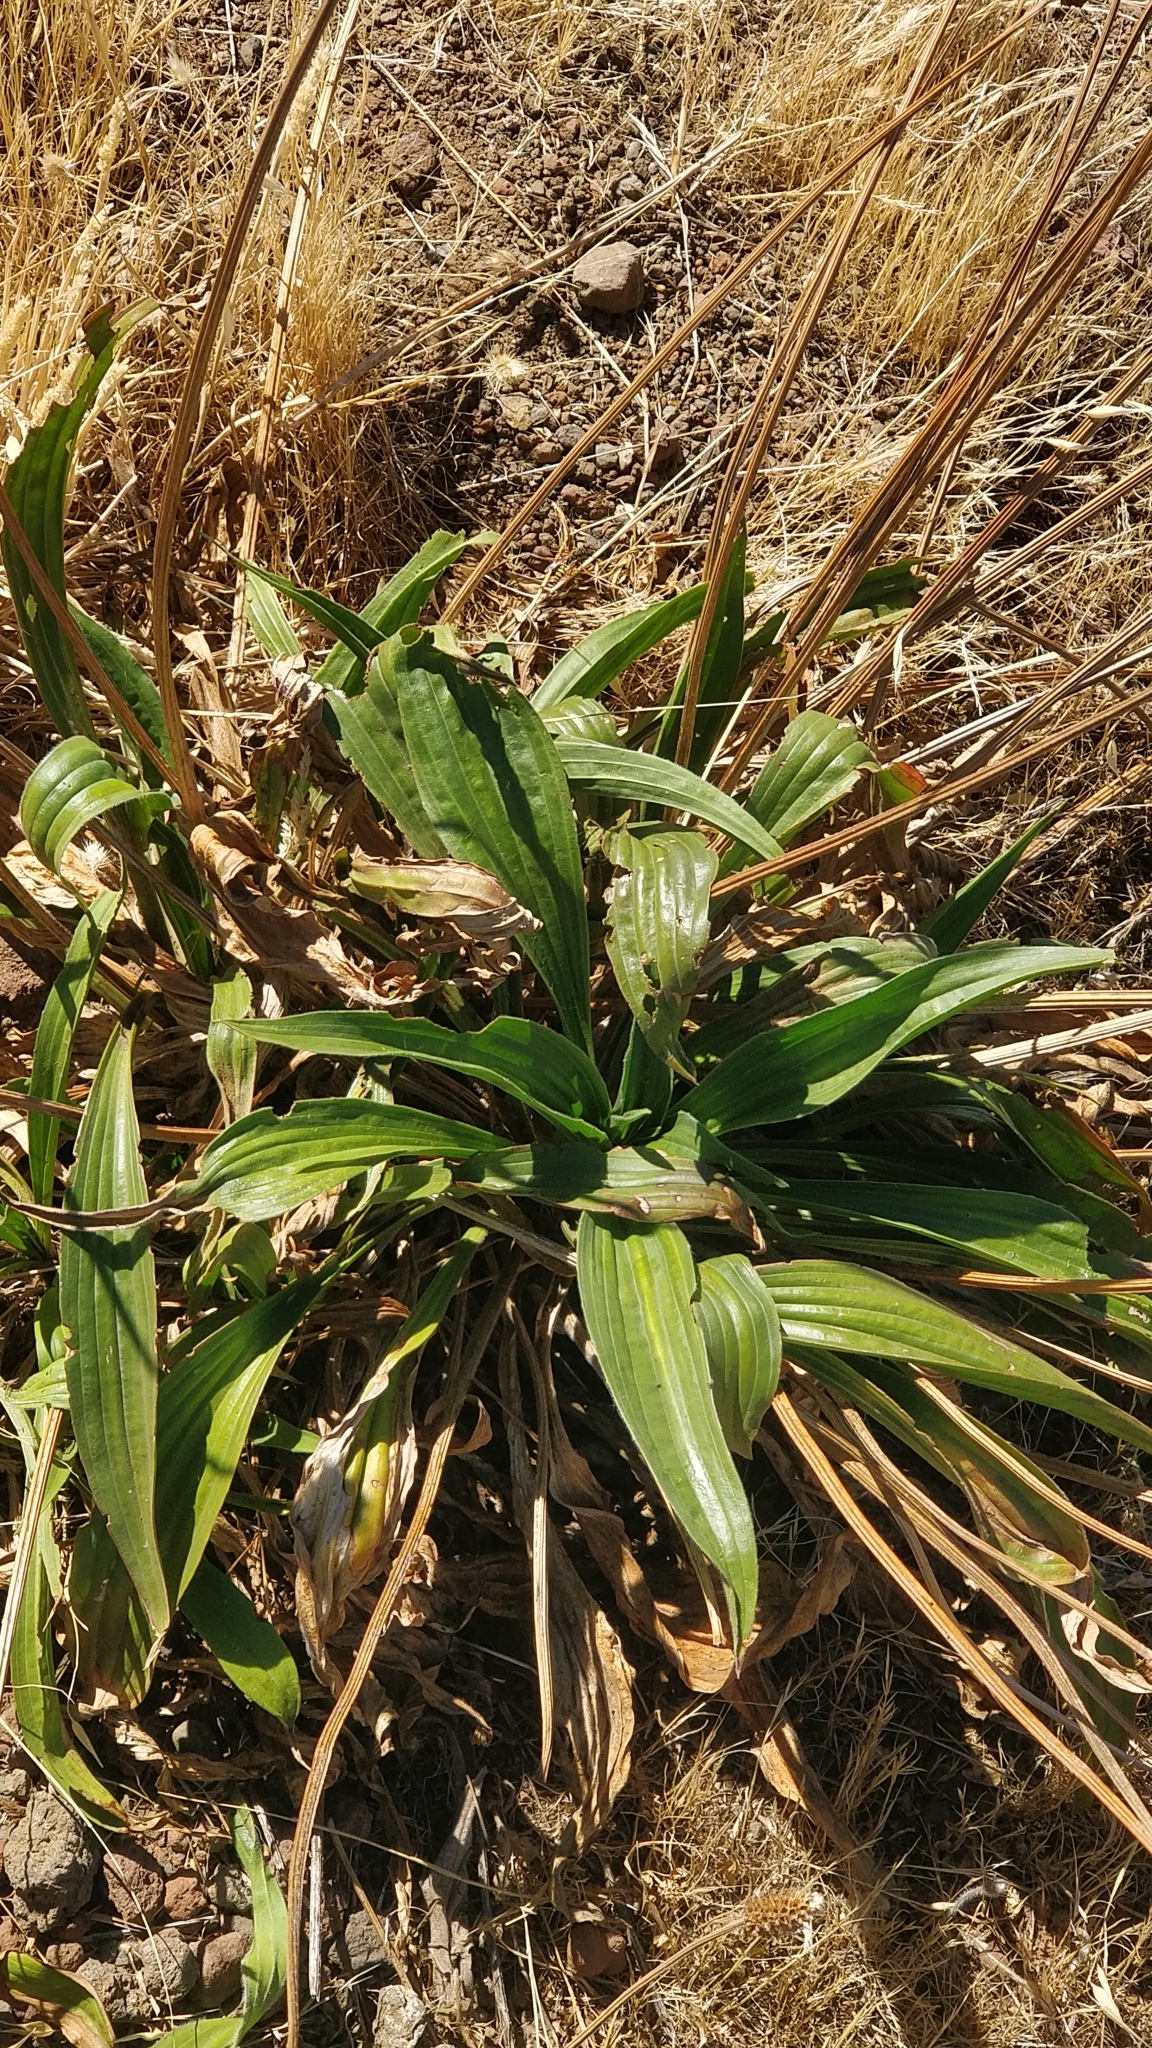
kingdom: Plantae
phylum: Tracheophyta
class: Magnoliopsida
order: Lamiales
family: Plantaginaceae
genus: Plantago
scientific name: Plantago malato-belizii
